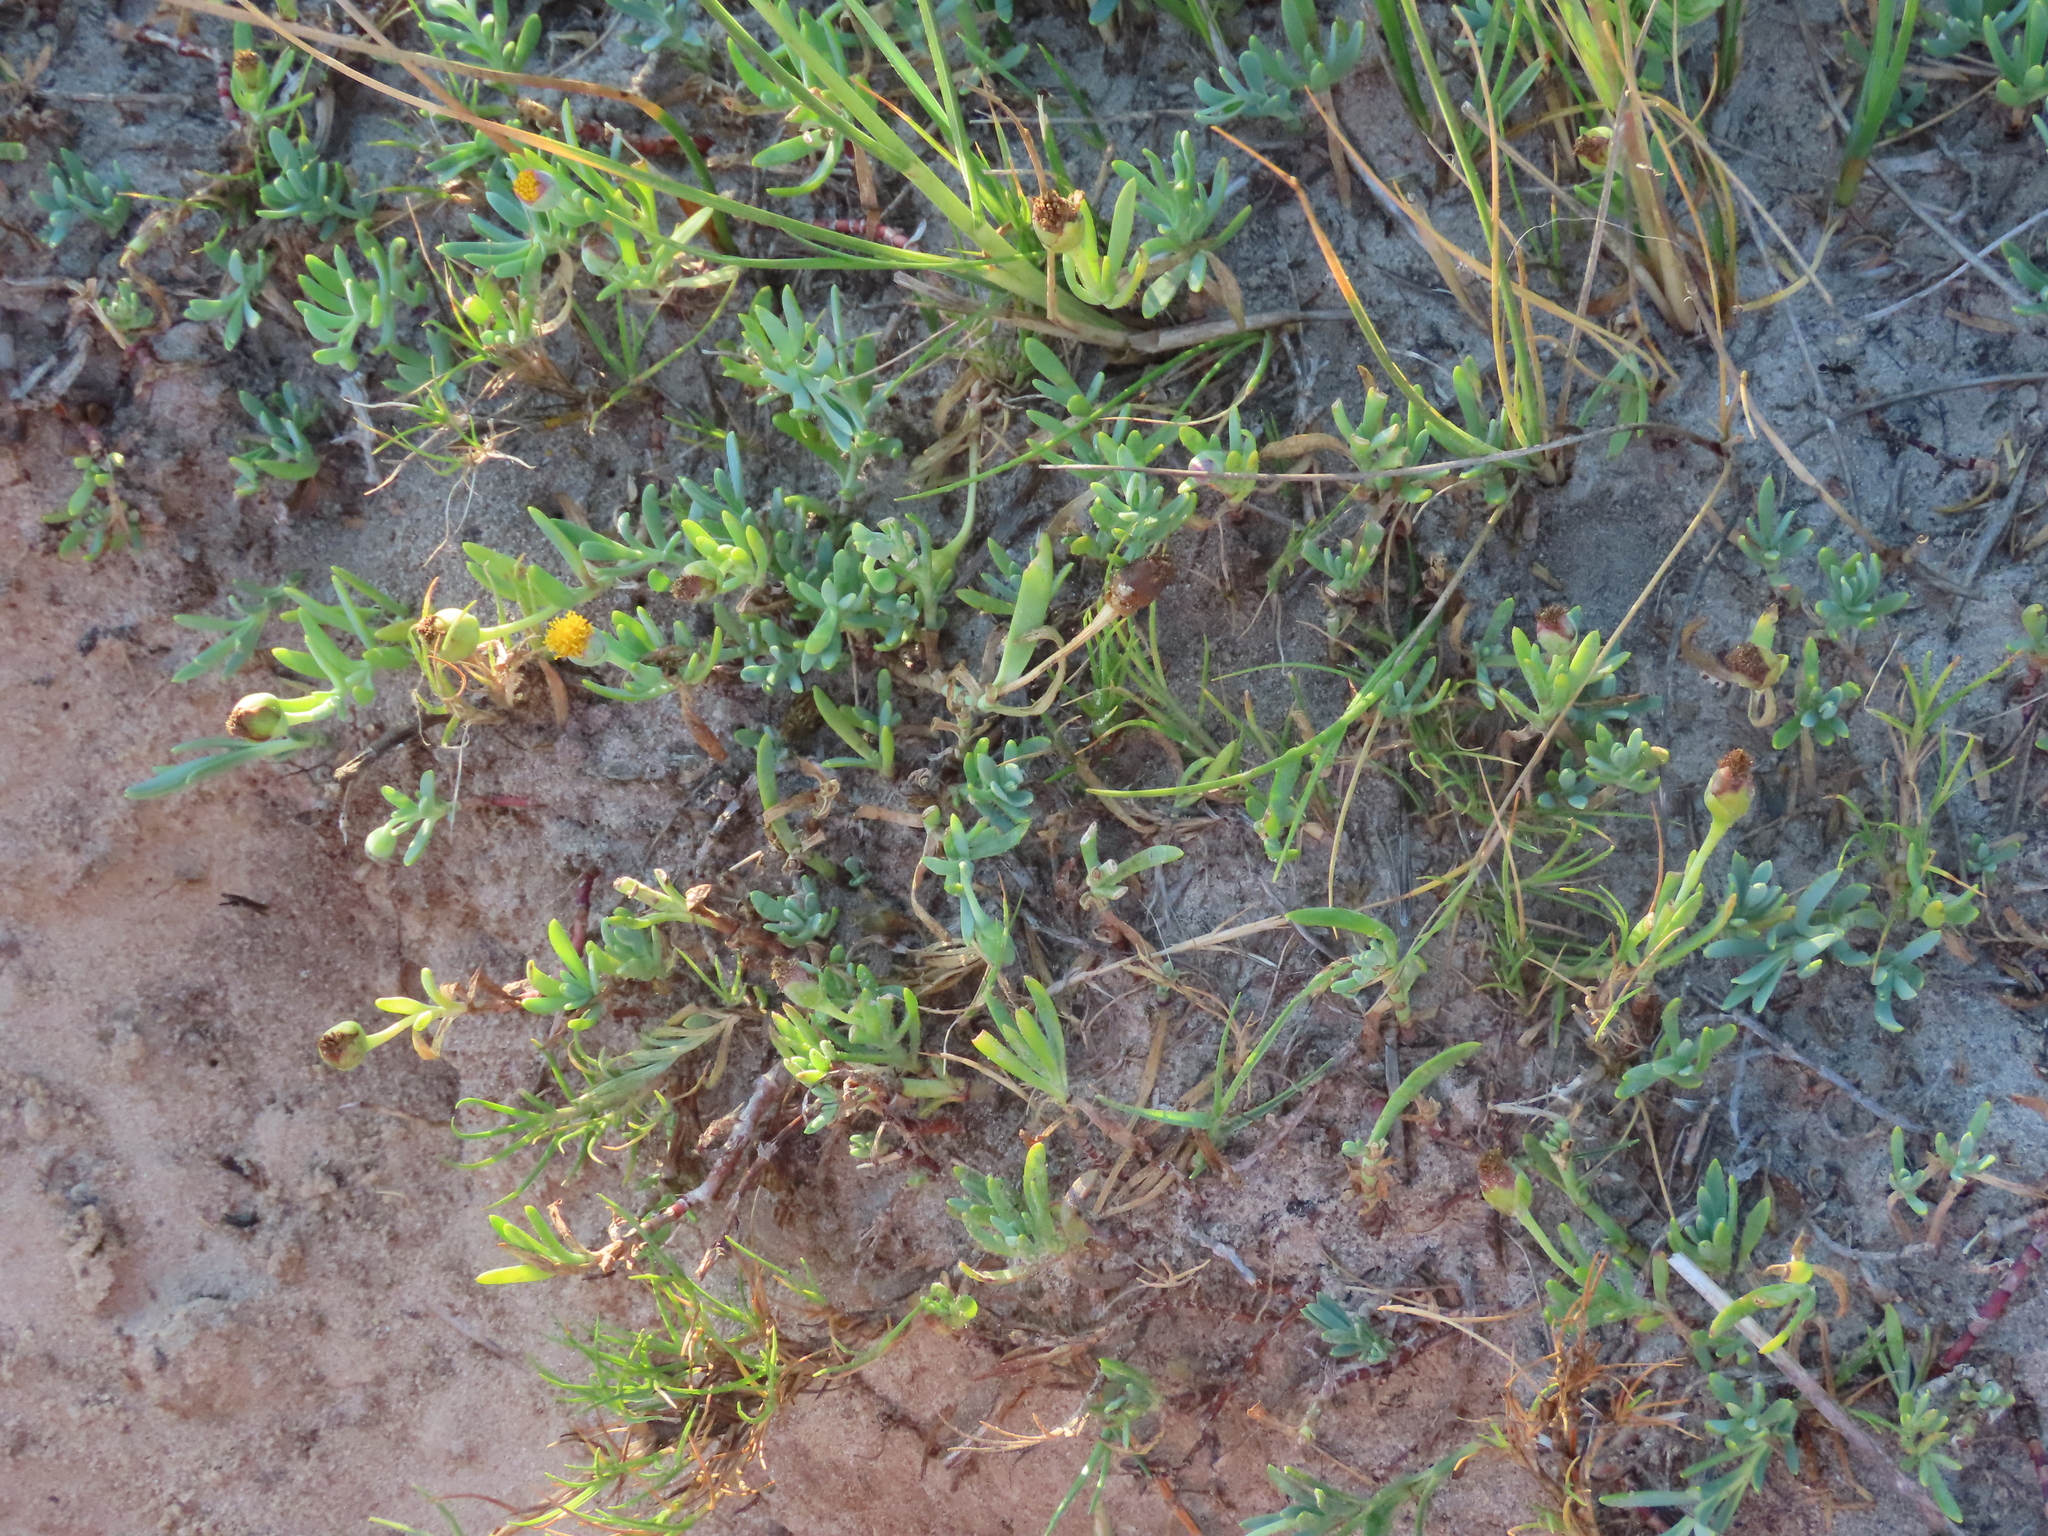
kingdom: Plantae
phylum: Tracheophyta
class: Magnoliopsida
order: Asterales
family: Asteraceae
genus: Jaumea
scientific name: Jaumea linearifolia
